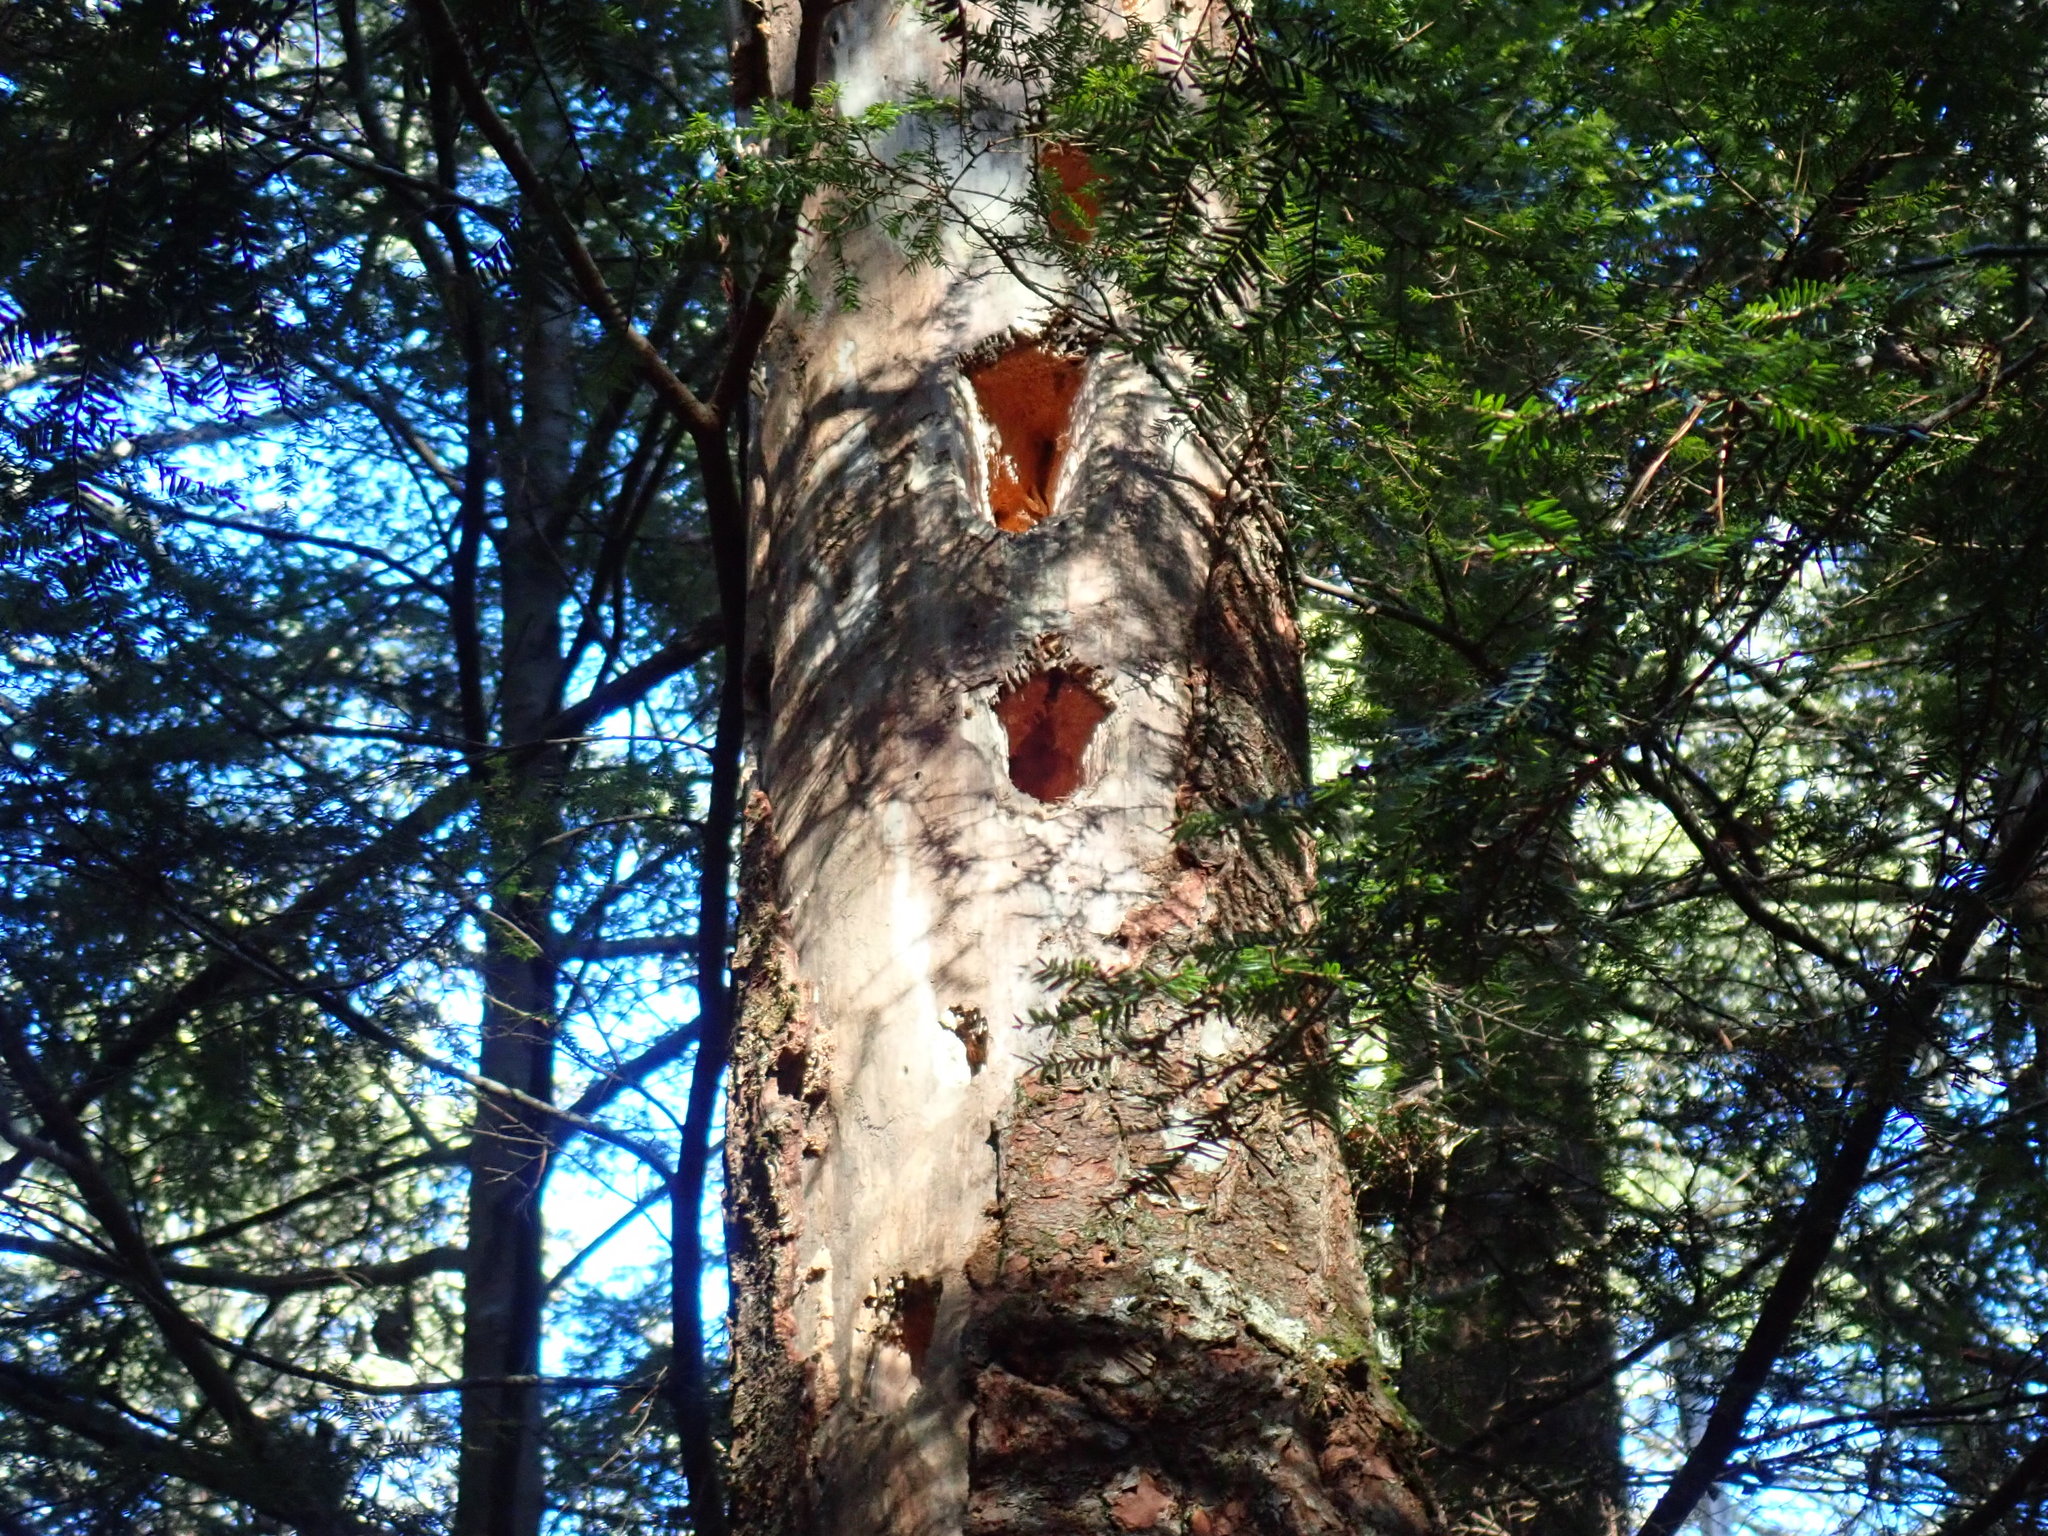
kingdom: Animalia
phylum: Chordata
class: Aves
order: Piciformes
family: Picidae
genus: Dryocopus
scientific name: Dryocopus pileatus
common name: Pileated woodpecker
